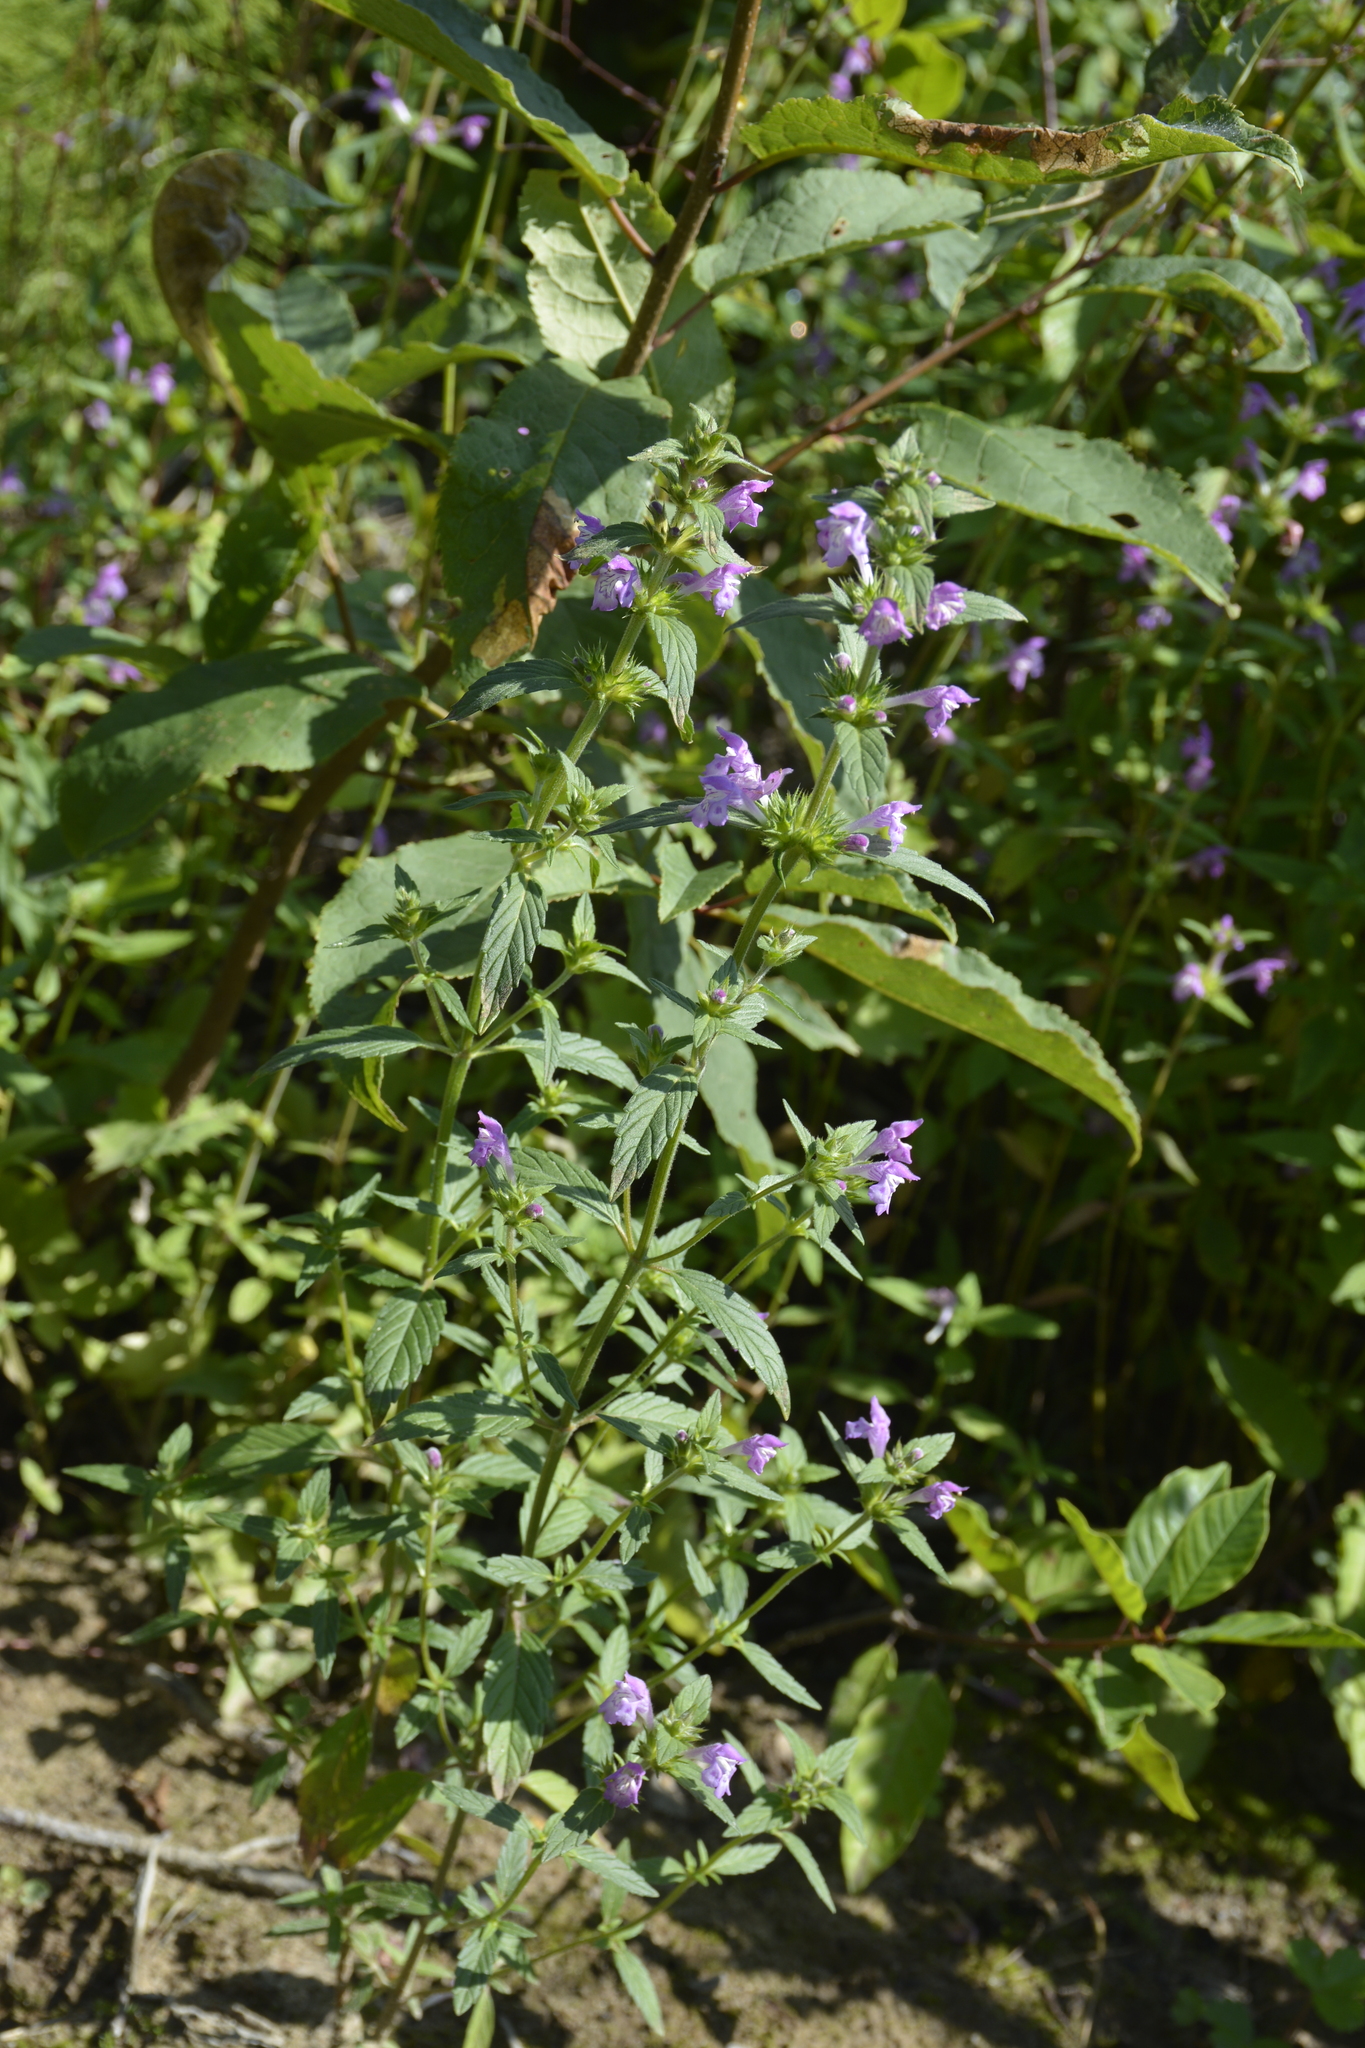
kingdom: Plantae
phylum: Tracheophyta
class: Magnoliopsida
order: Lamiales
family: Lamiaceae
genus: Galeopsis
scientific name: Galeopsis ladanum
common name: Broad-leaved hemp-nettle
